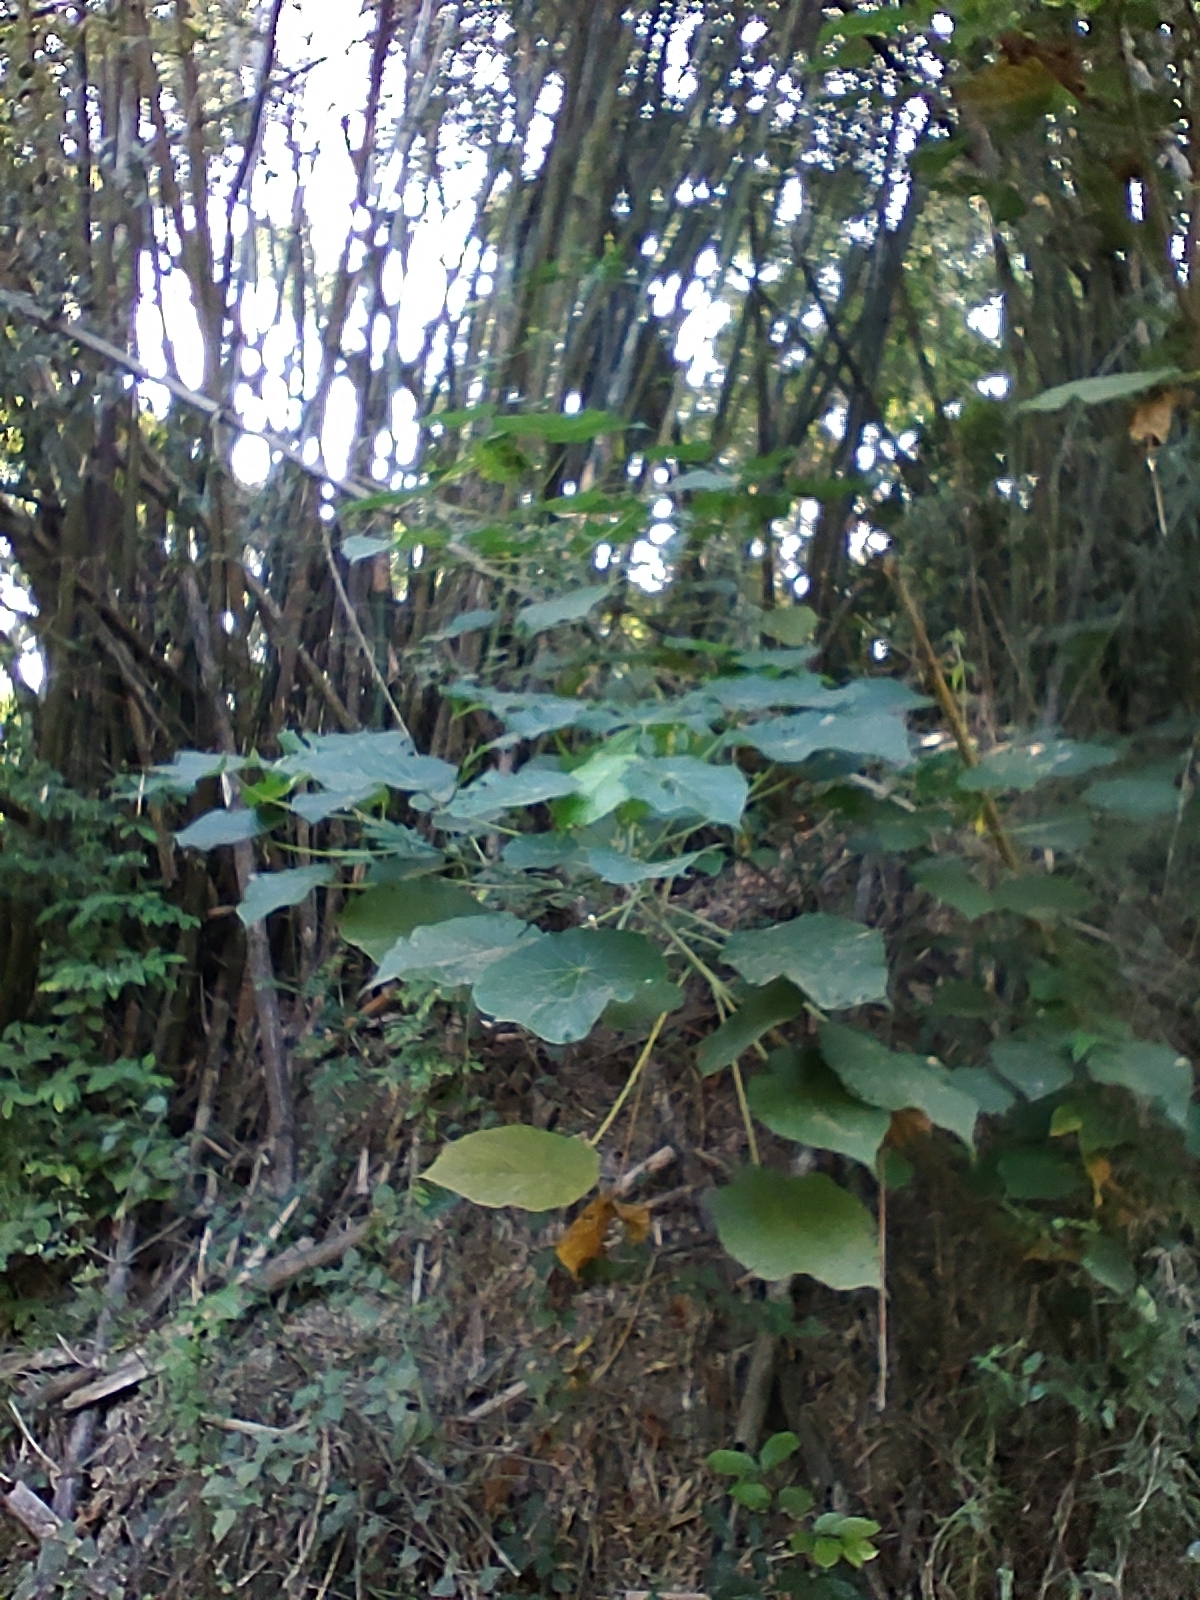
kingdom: Plantae
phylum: Tracheophyta
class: Magnoliopsida
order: Malpighiales
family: Euphorbiaceae
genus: Macaranga
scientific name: Macaranga tanarius
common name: Parasol leaf tree
